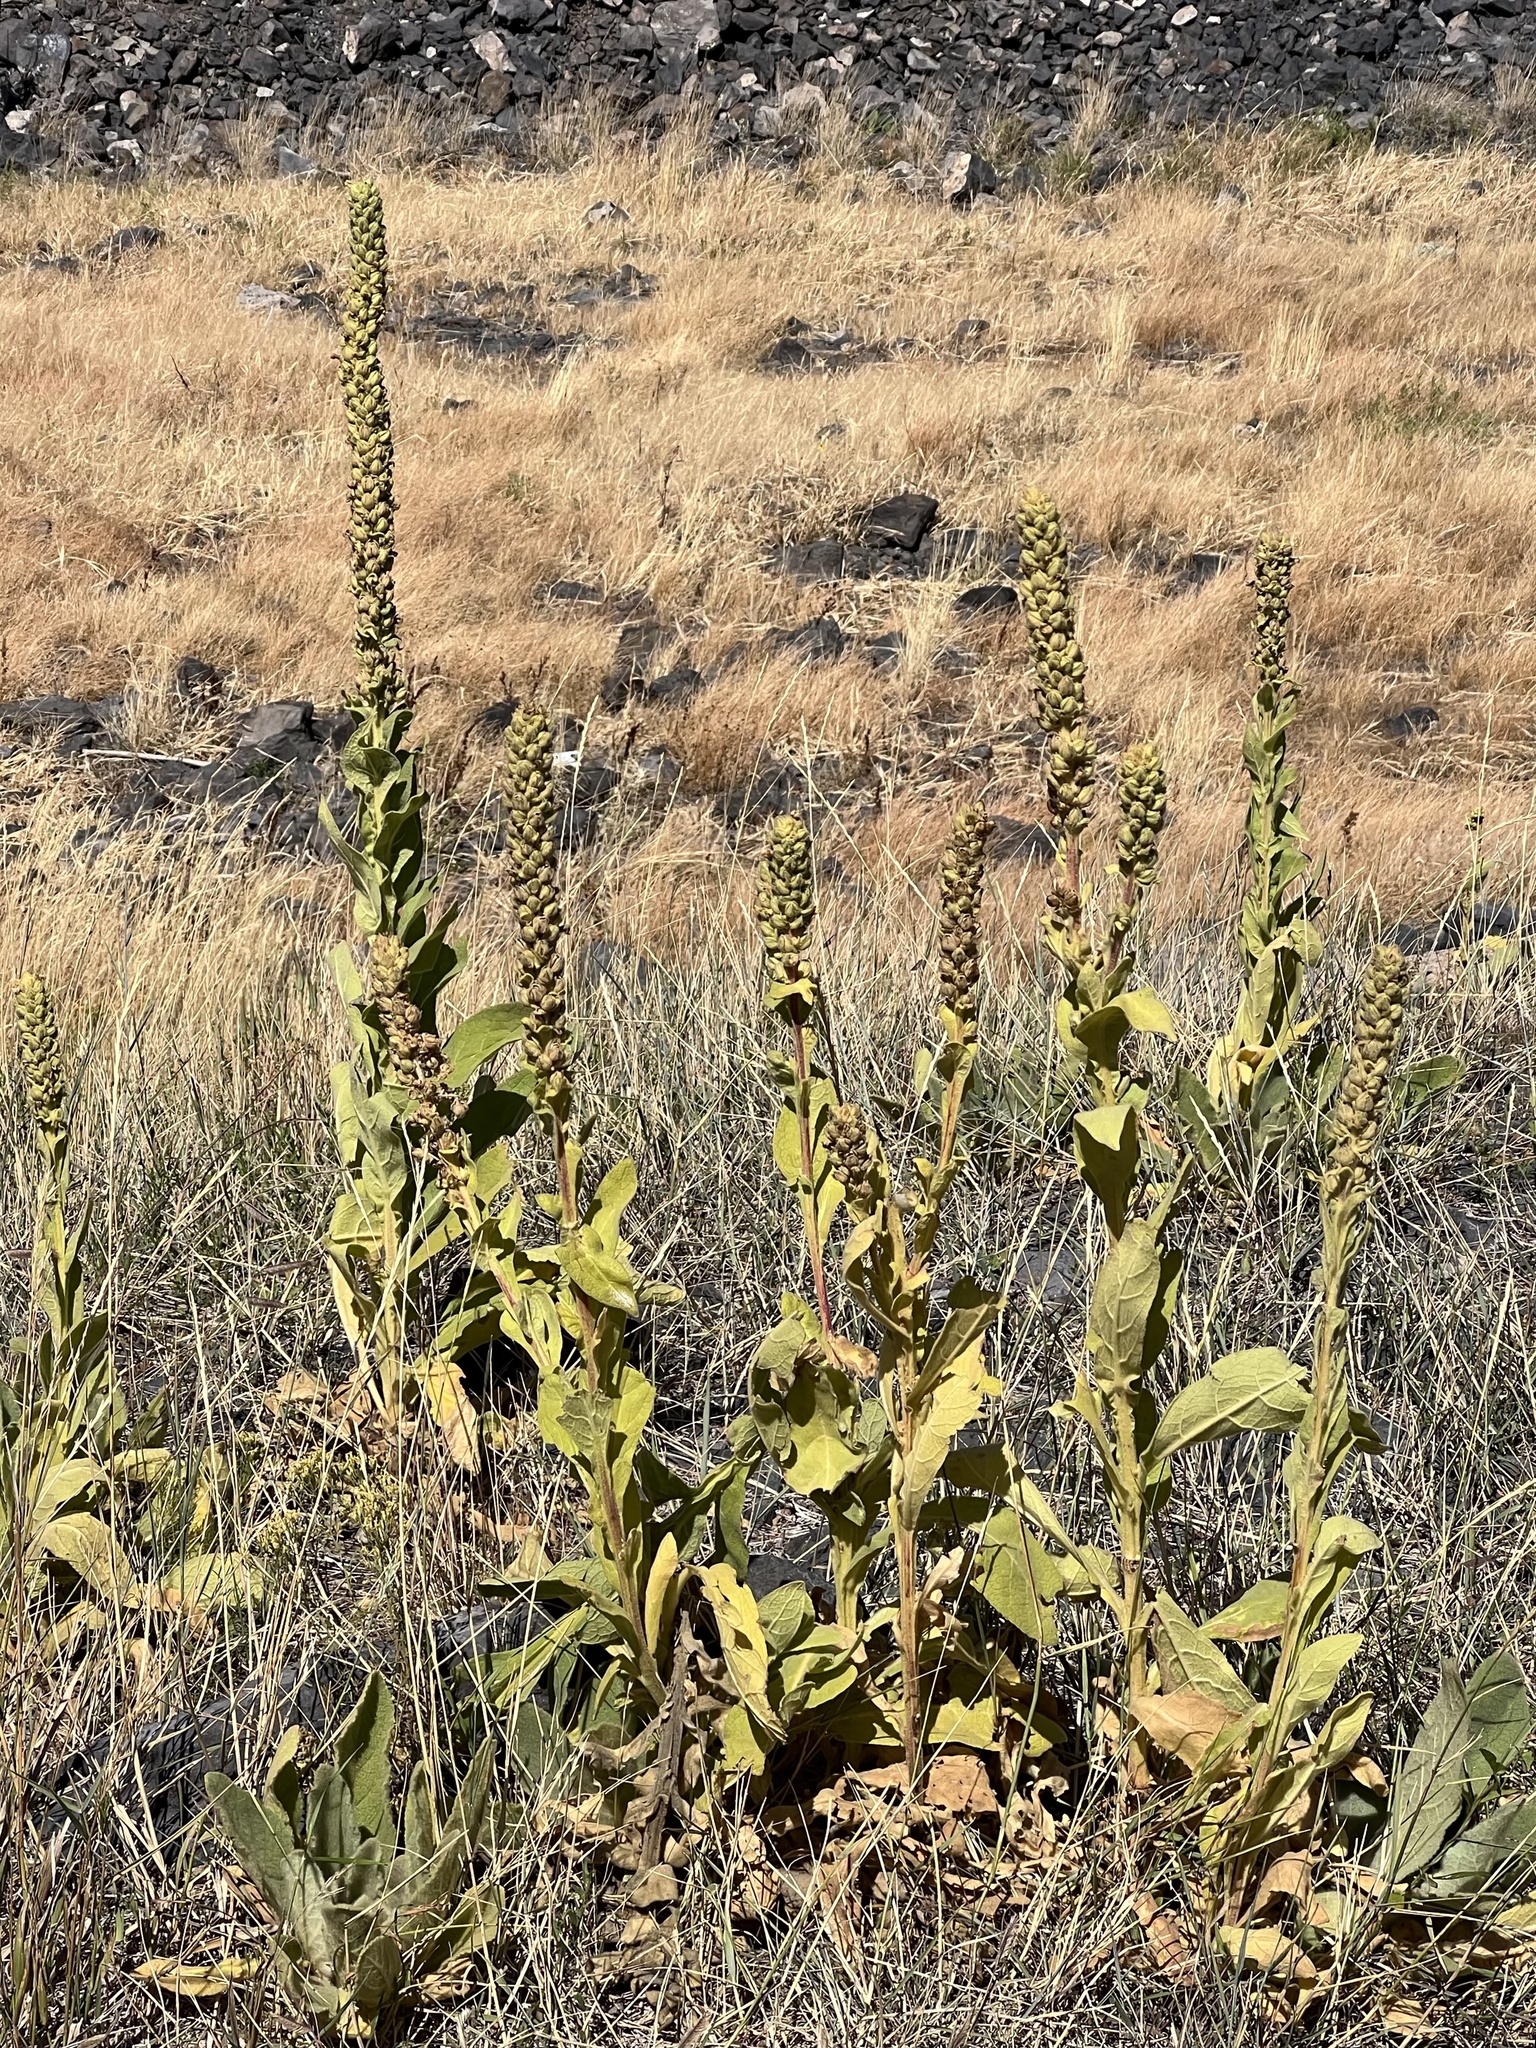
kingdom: Plantae
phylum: Tracheophyta
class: Magnoliopsida
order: Lamiales
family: Scrophulariaceae
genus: Verbascum
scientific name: Verbascum thapsus
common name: Common mullein
